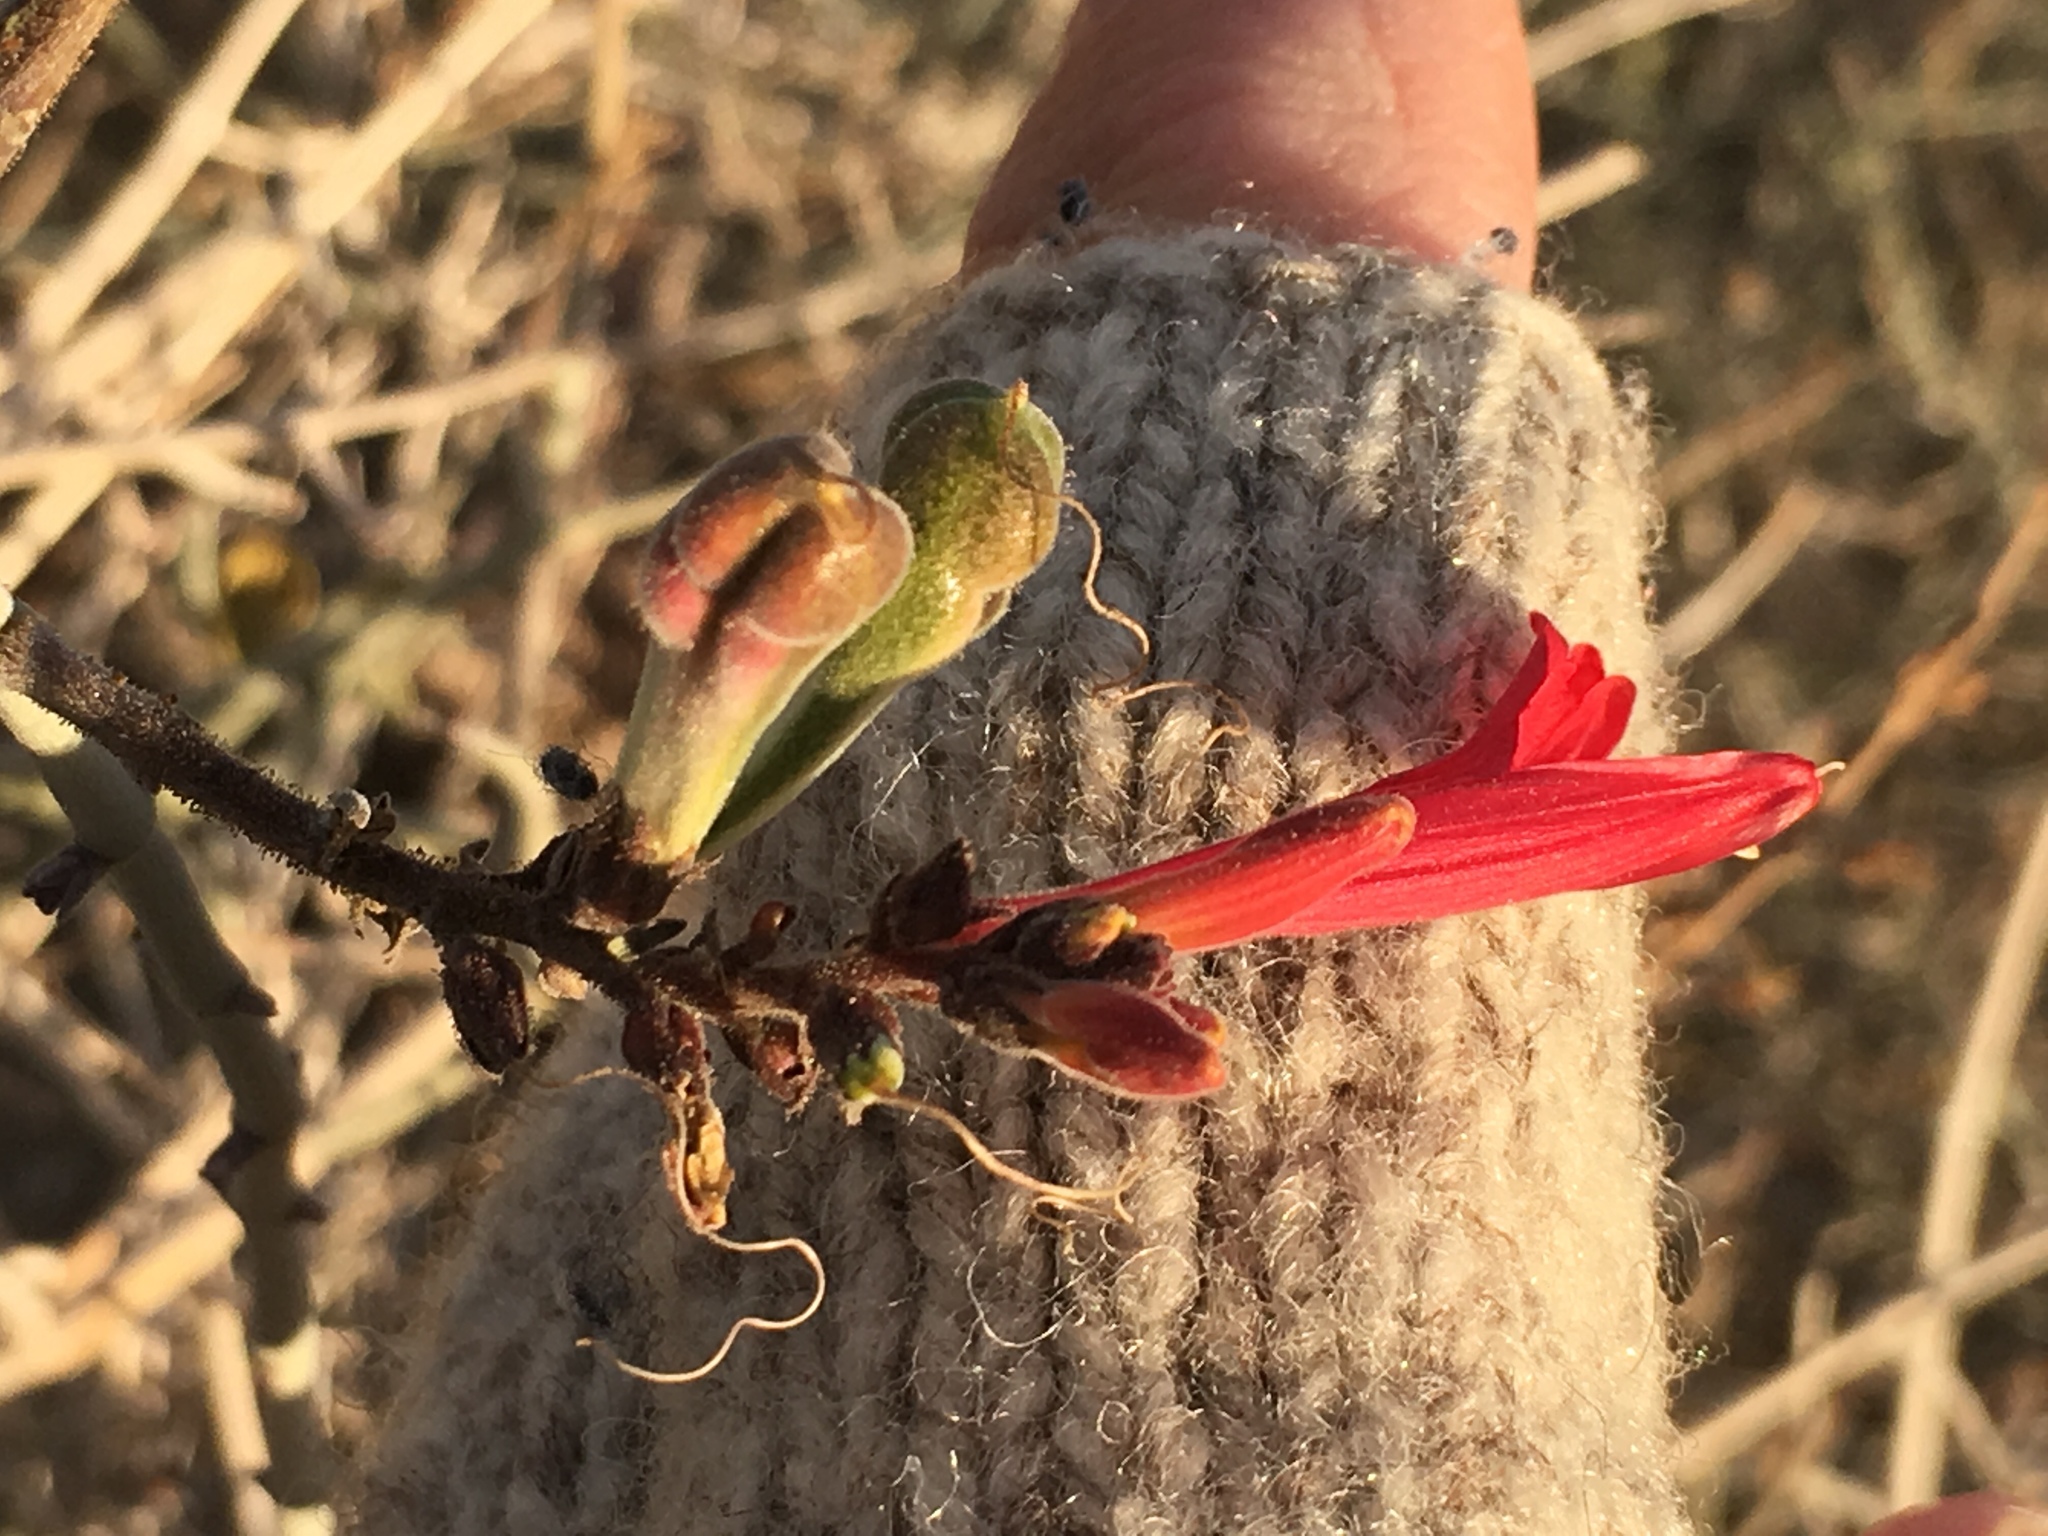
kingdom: Plantae
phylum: Tracheophyta
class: Magnoliopsida
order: Lamiales
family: Acanthaceae
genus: Justicia
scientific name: Justicia californica
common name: Chuparosa-honeysuckle
